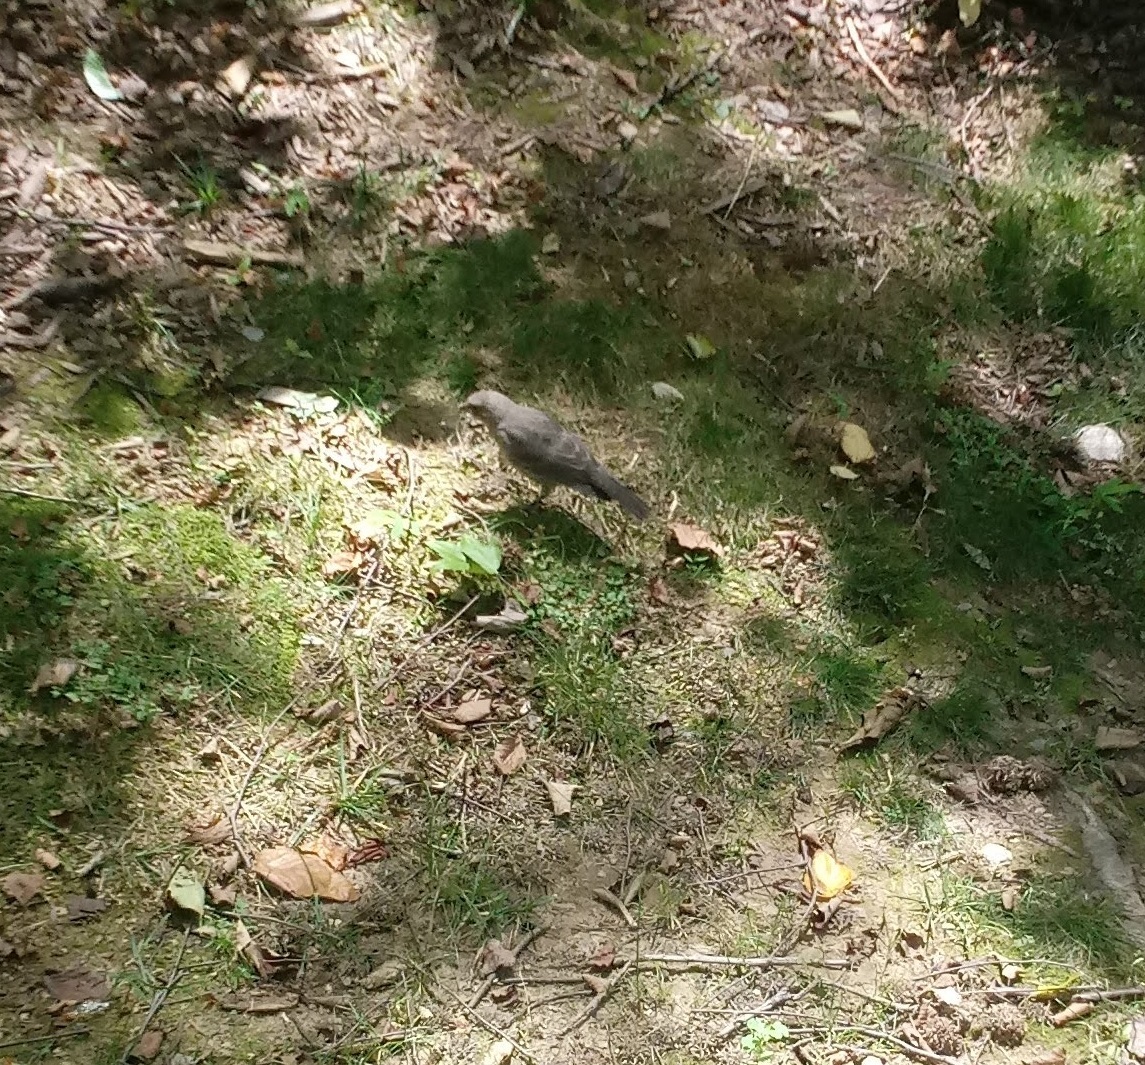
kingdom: Animalia
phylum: Chordata
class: Aves
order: Passeriformes
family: Icteridae
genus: Molothrus
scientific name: Molothrus ater
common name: Brown-headed cowbird
